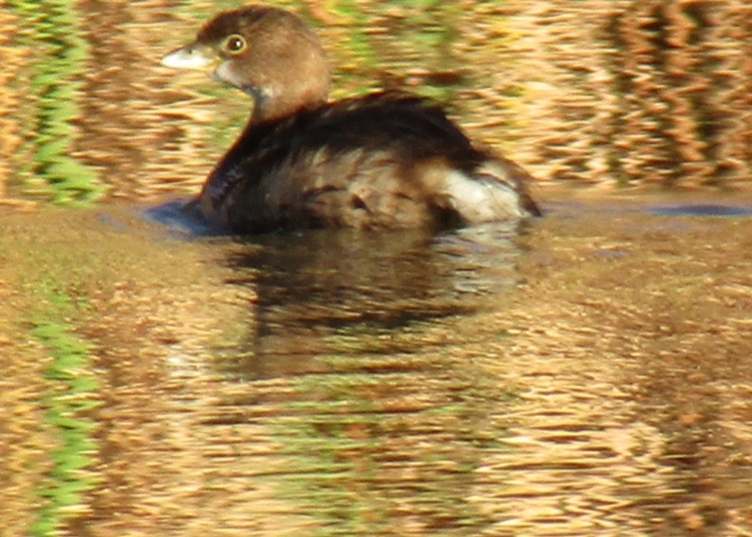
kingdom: Animalia
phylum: Chordata
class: Aves
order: Podicipediformes
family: Podicipedidae
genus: Podilymbus
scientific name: Podilymbus podiceps
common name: Pied-billed grebe
